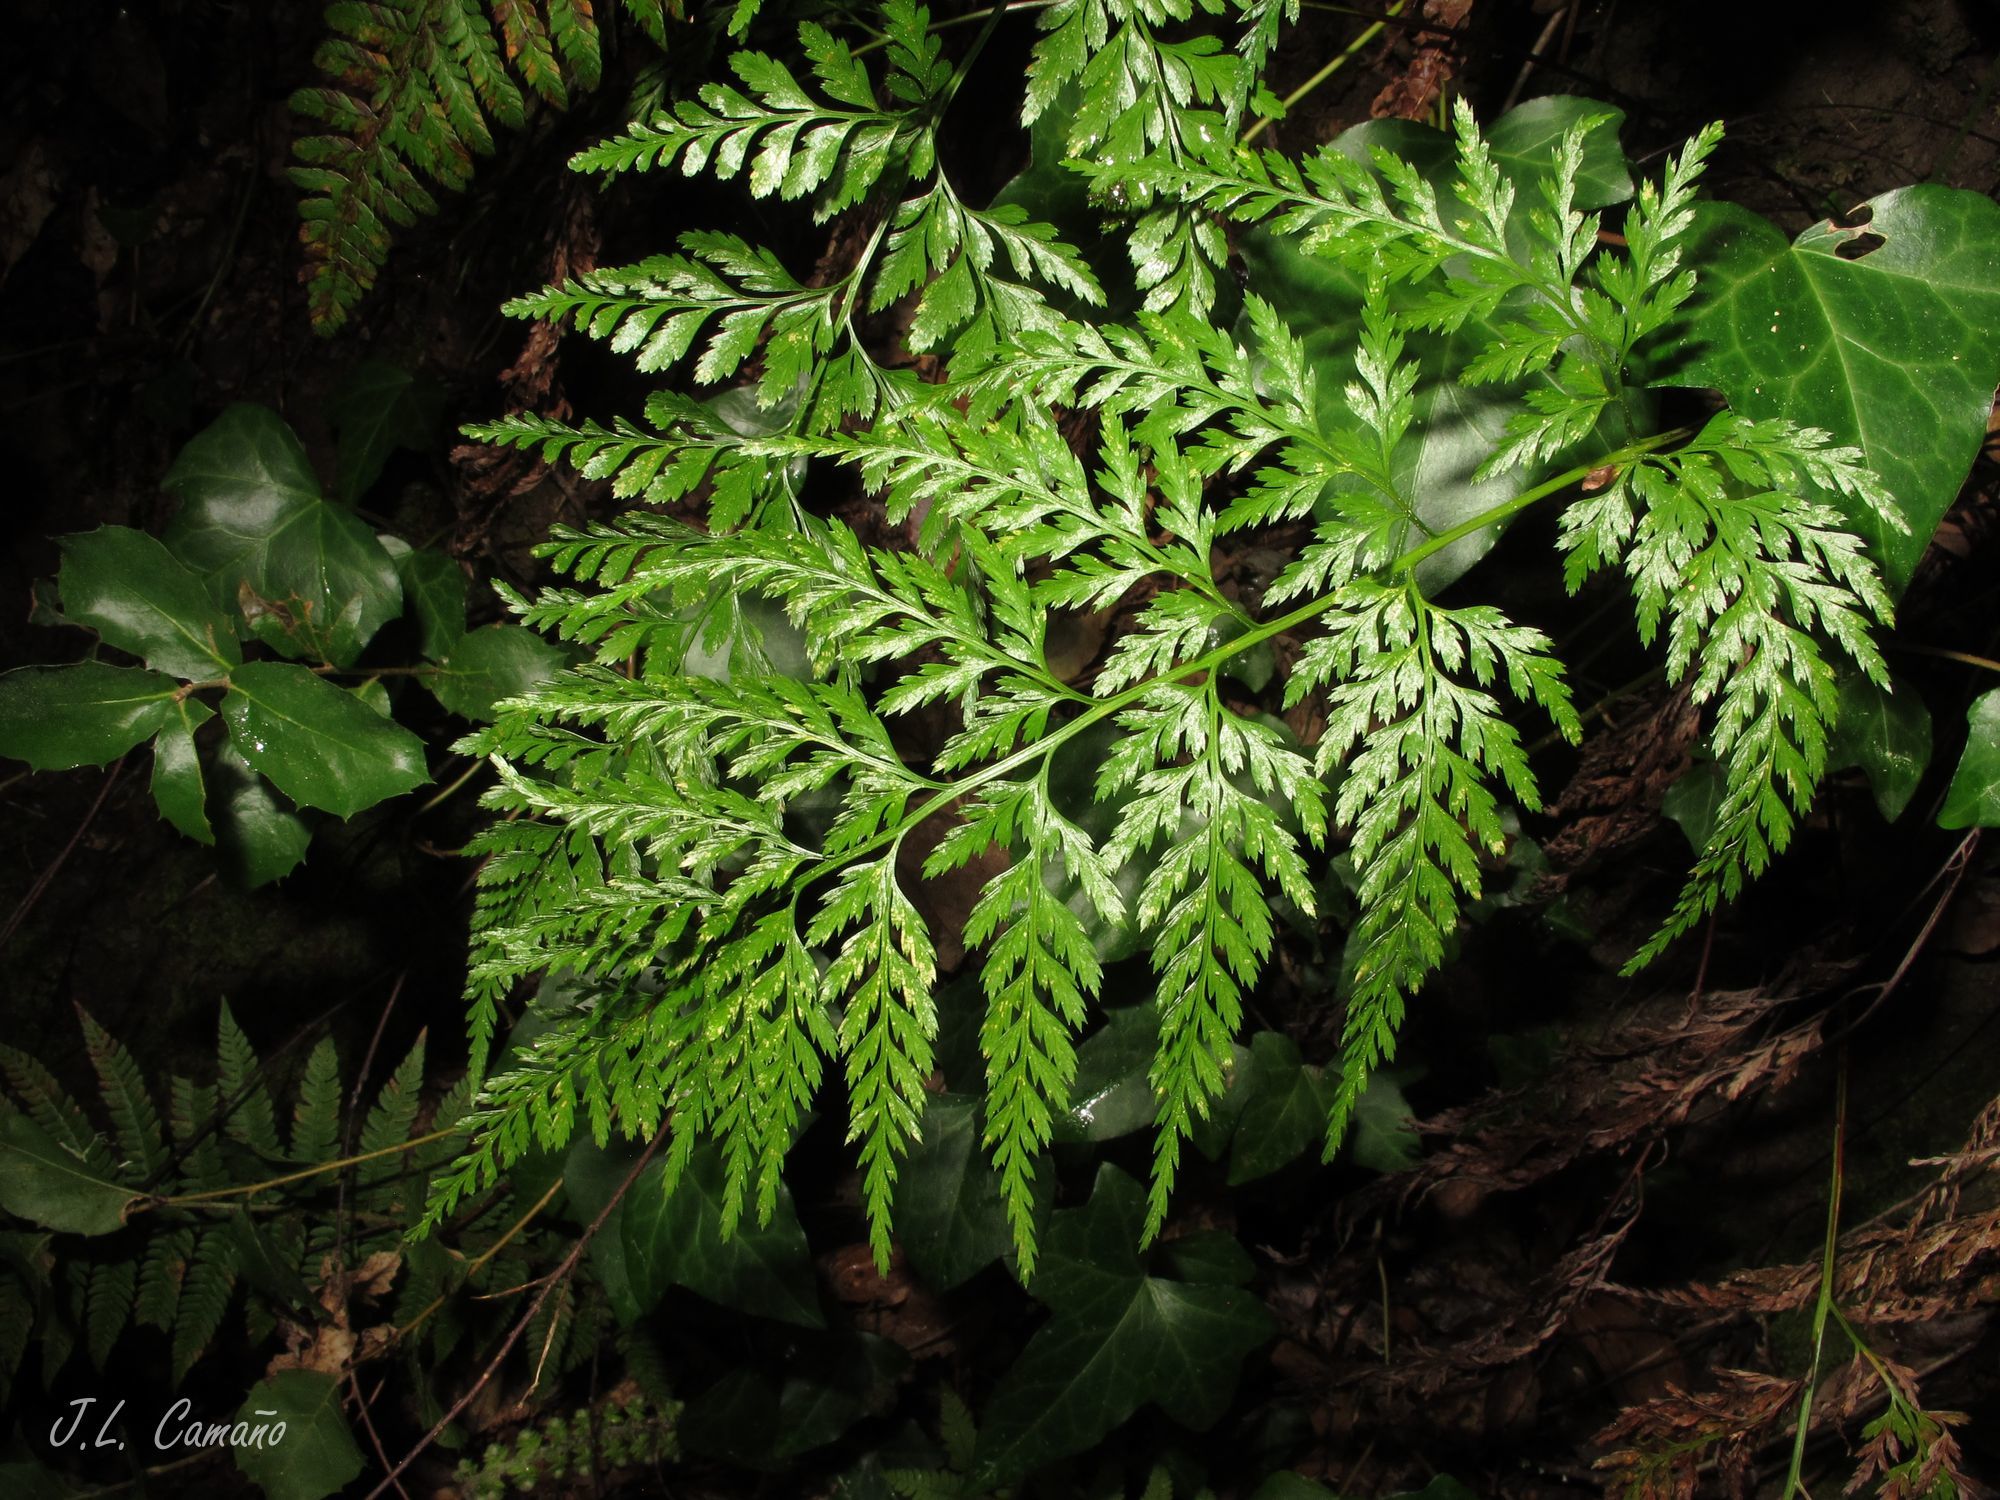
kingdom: Plantae
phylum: Tracheophyta
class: Polypodiopsida
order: Polypodiales
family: Aspleniaceae
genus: Asplenium
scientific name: Asplenium onopteris
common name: Irish spleenwort
